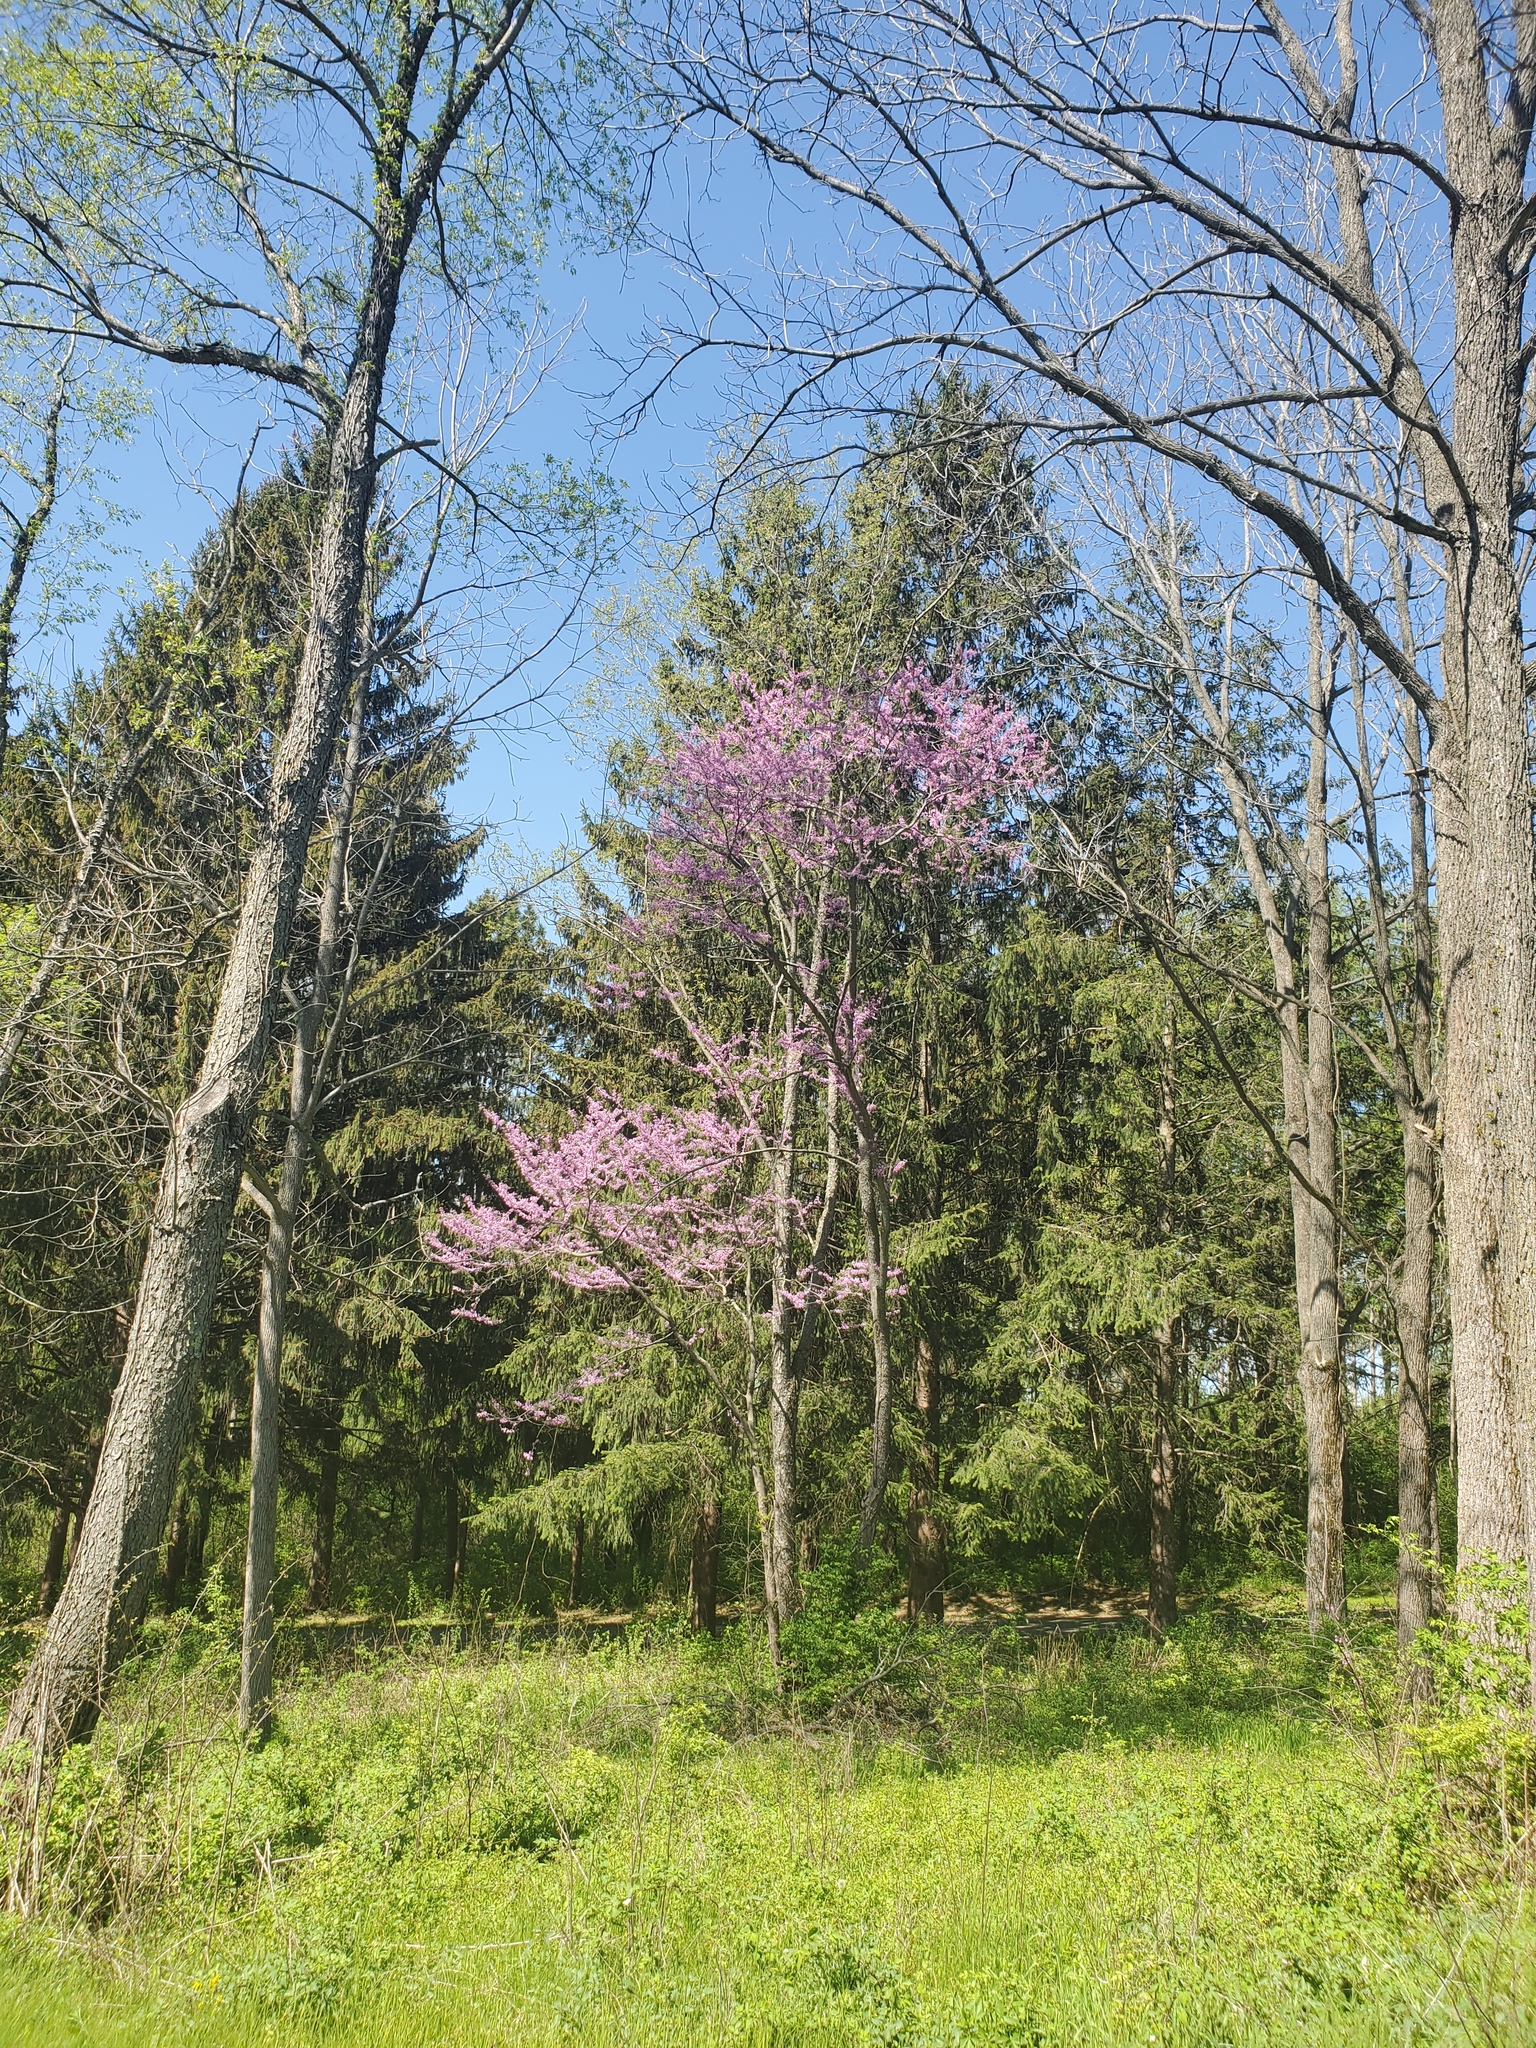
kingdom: Plantae
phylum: Tracheophyta
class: Magnoliopsida
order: Fabales
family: Fabaceae
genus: Cercis
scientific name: Cercis canadensis
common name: Eastern redbud
